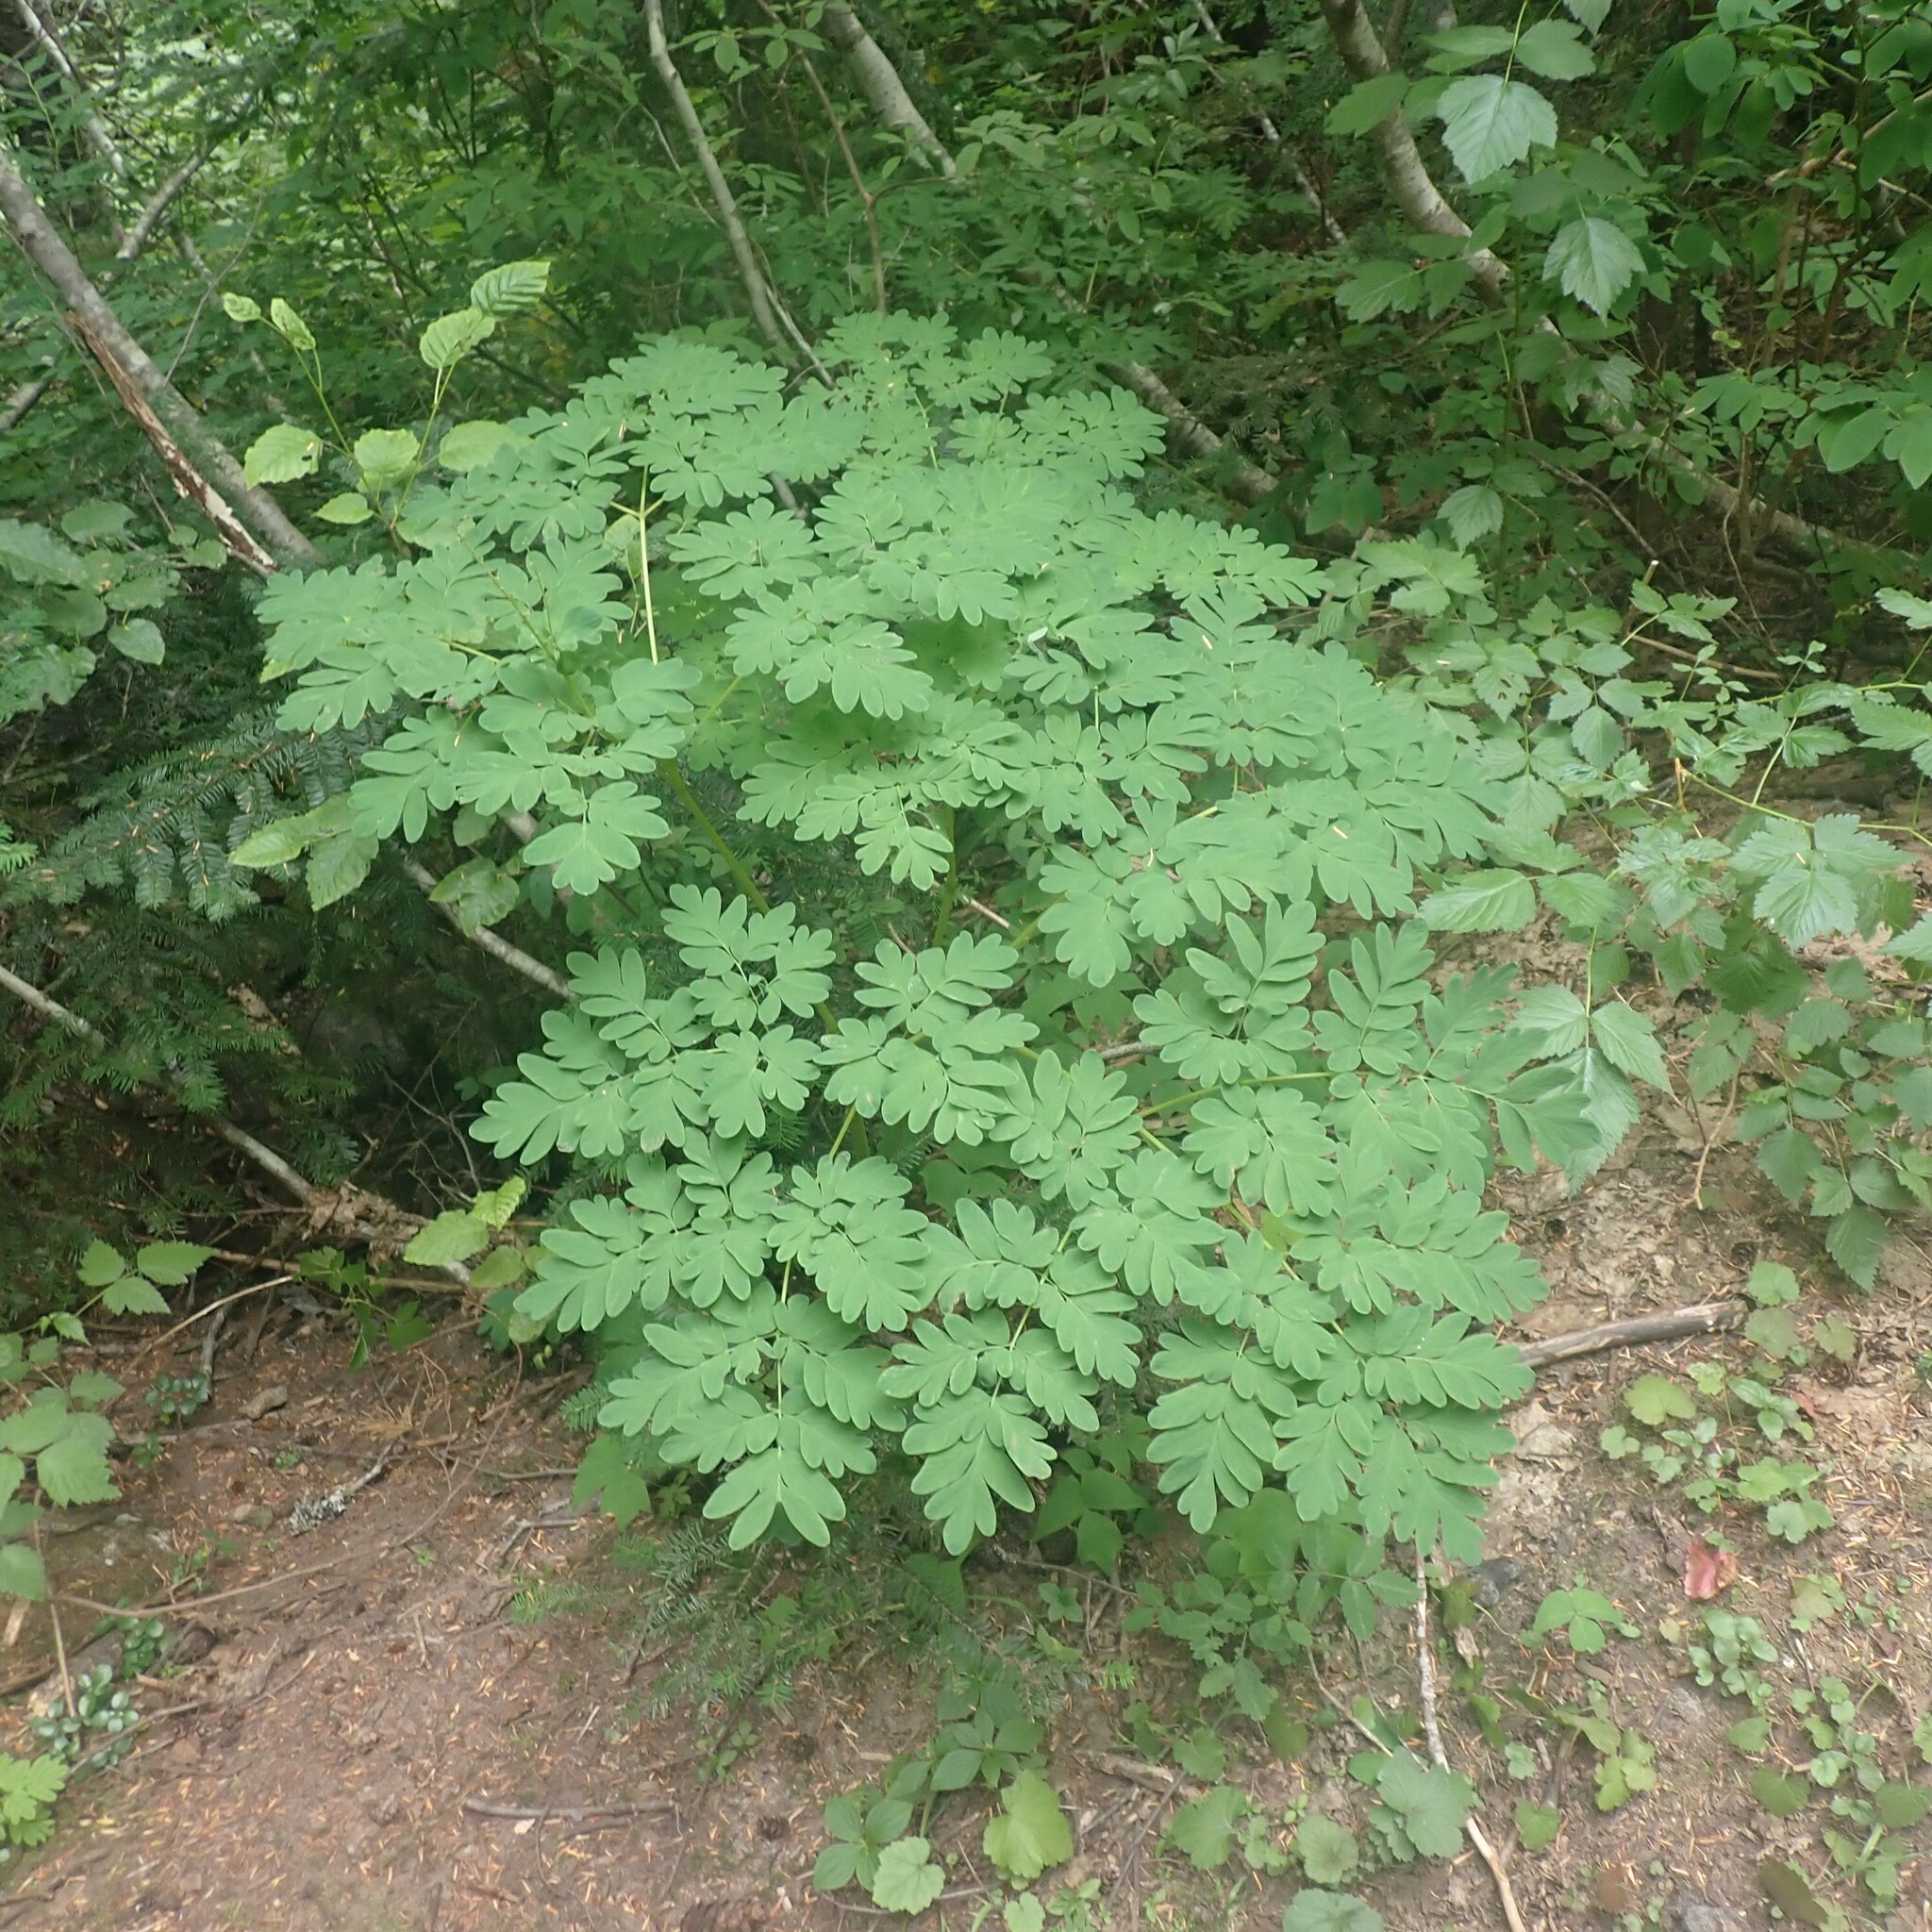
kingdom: Plantae
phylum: Tracheophyta
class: Magnoliopsida
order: Ranunculales
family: Papaveraceae
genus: Corydalis
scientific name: Corydalis scouleri
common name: Scouler's corydalis
